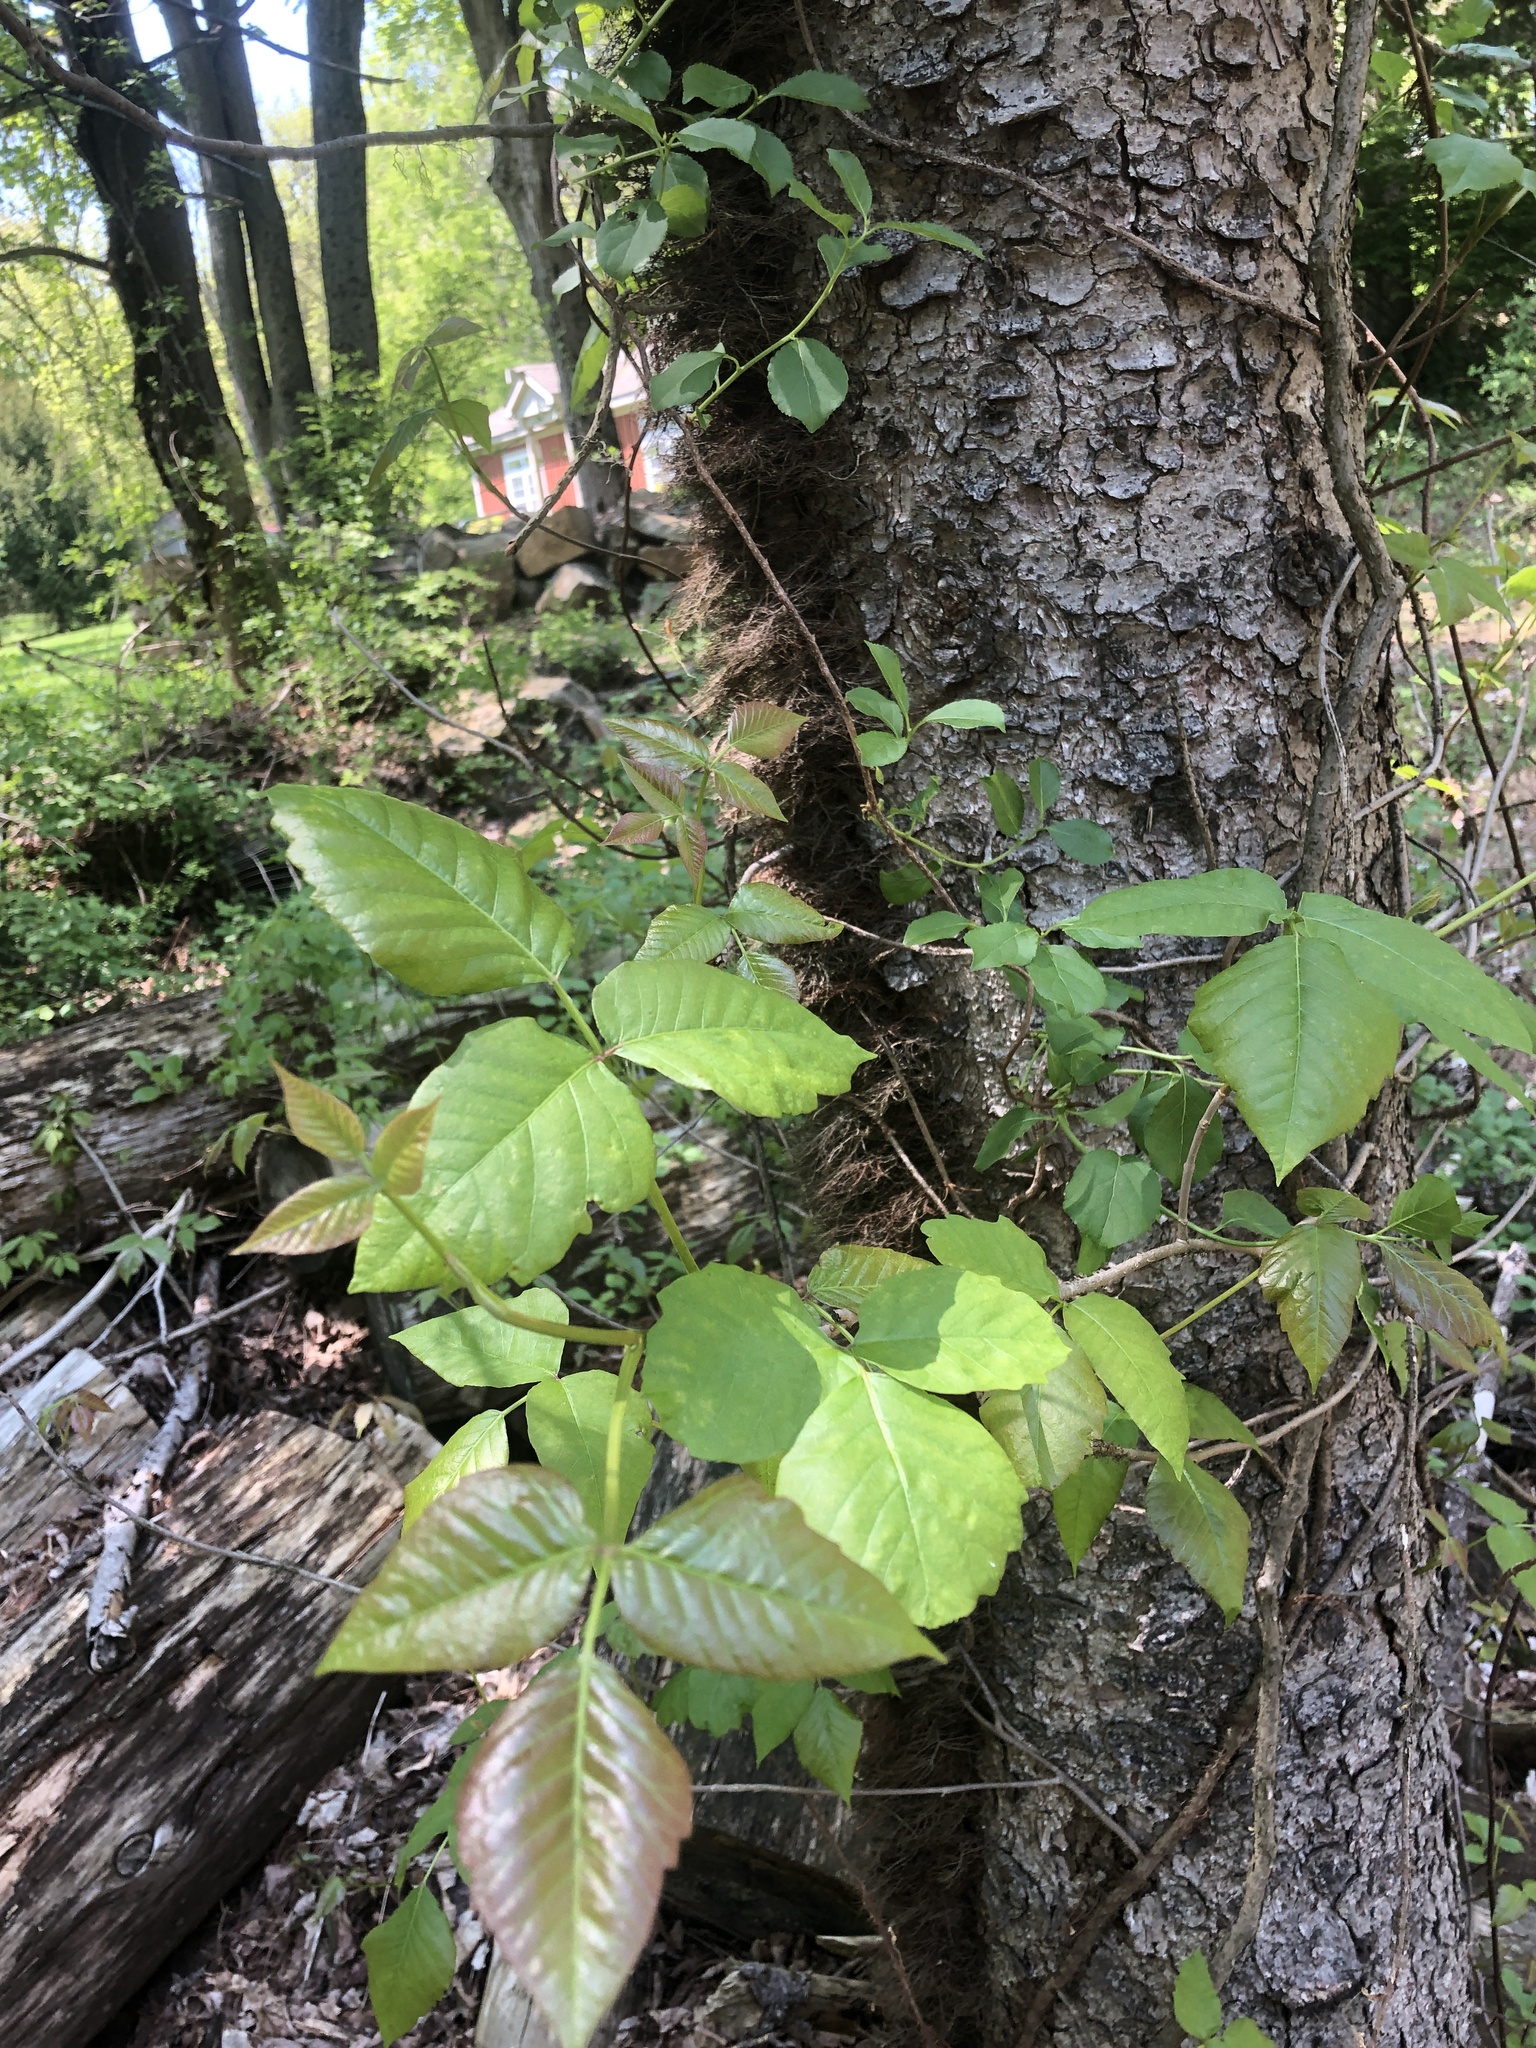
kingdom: Plantae
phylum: Tracheophyta
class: Magnoliopsida
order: Sapindales
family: Anacardiaceae
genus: Toxicodendron
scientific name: Toxicodendron radicans
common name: Poison ivy
